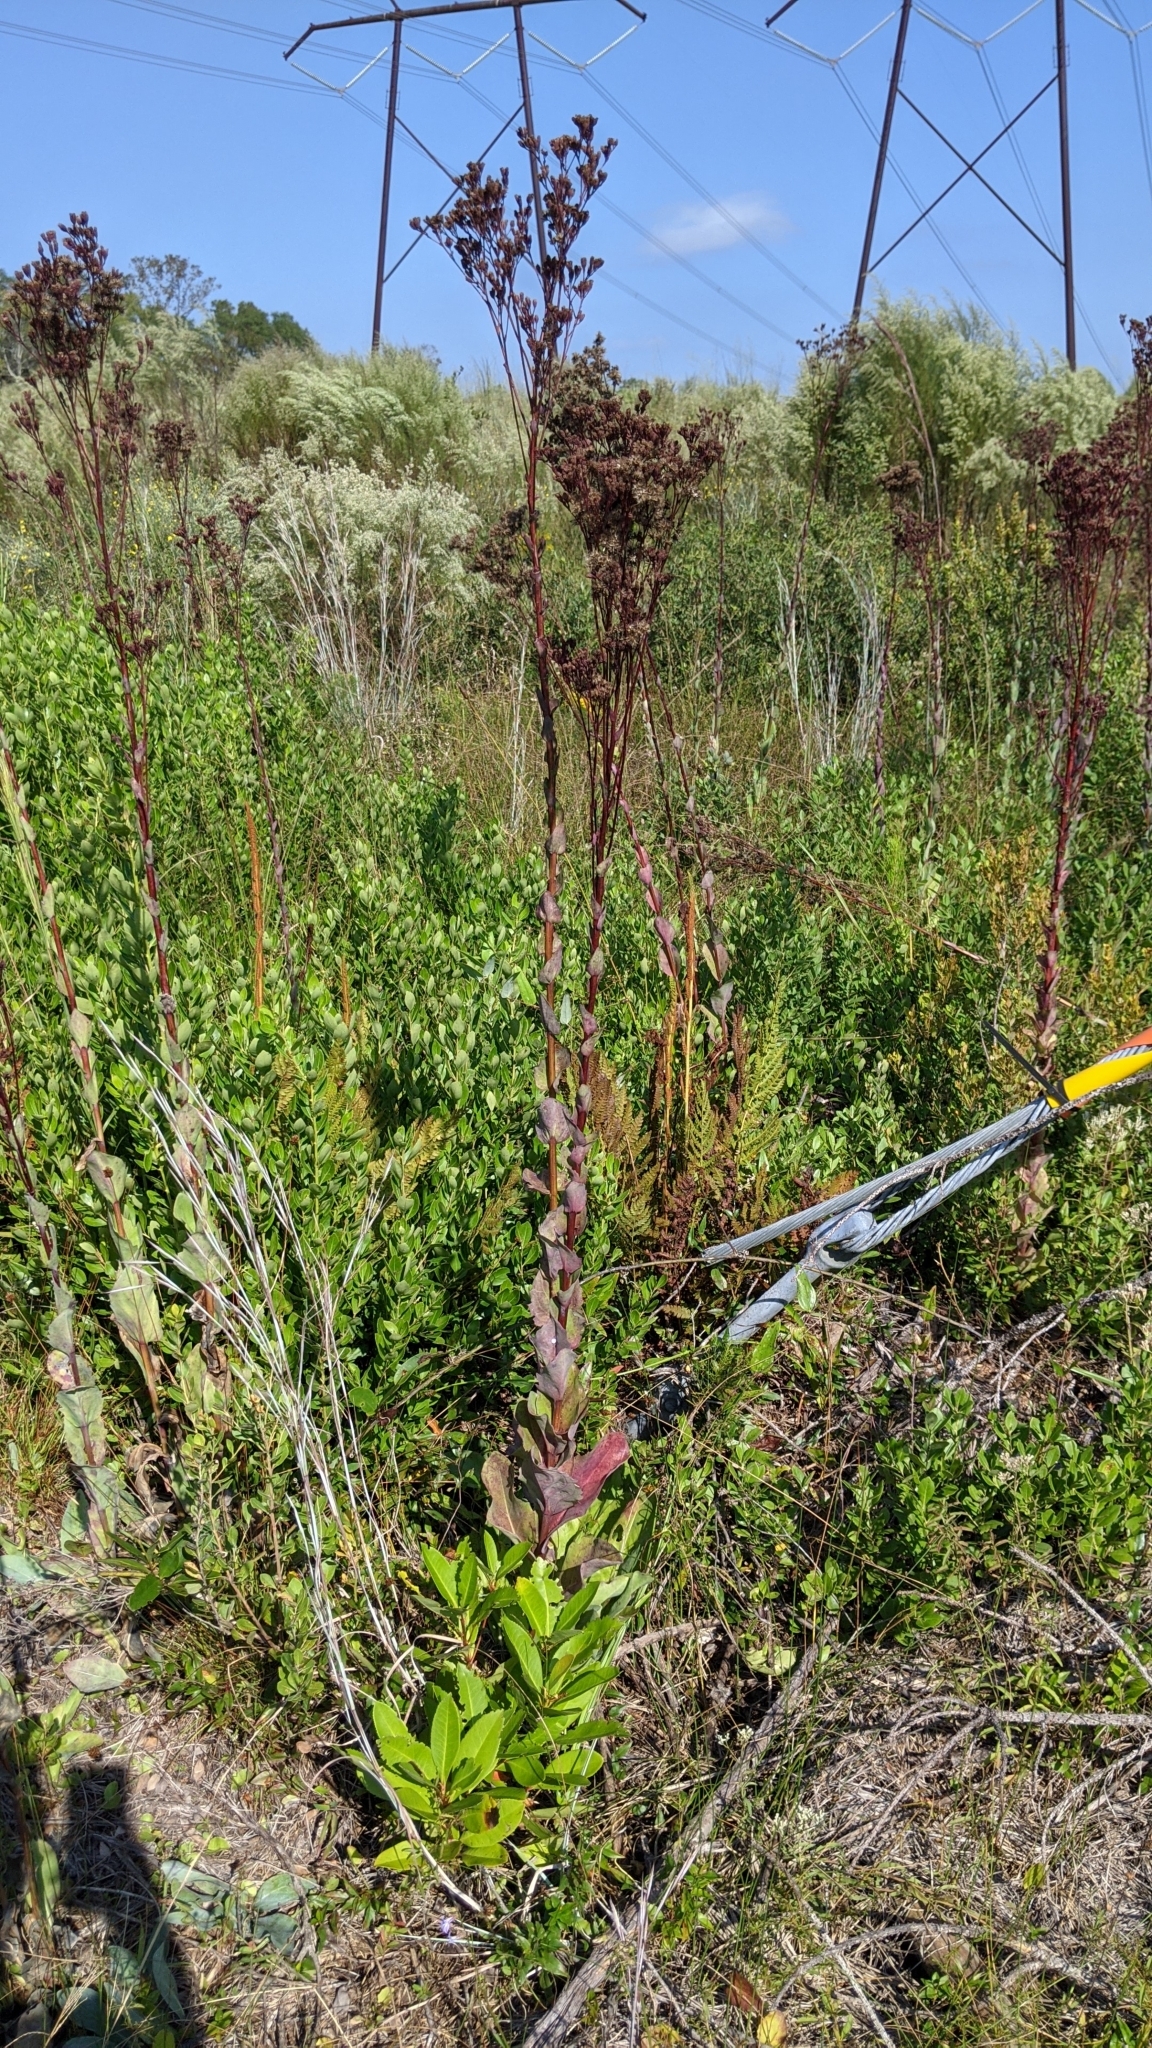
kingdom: Plantae
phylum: Tracheophyta
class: Magnoliopsida
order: Asterales
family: Asteraceae
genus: Carphephorus
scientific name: Carphephorus odoratissimus
